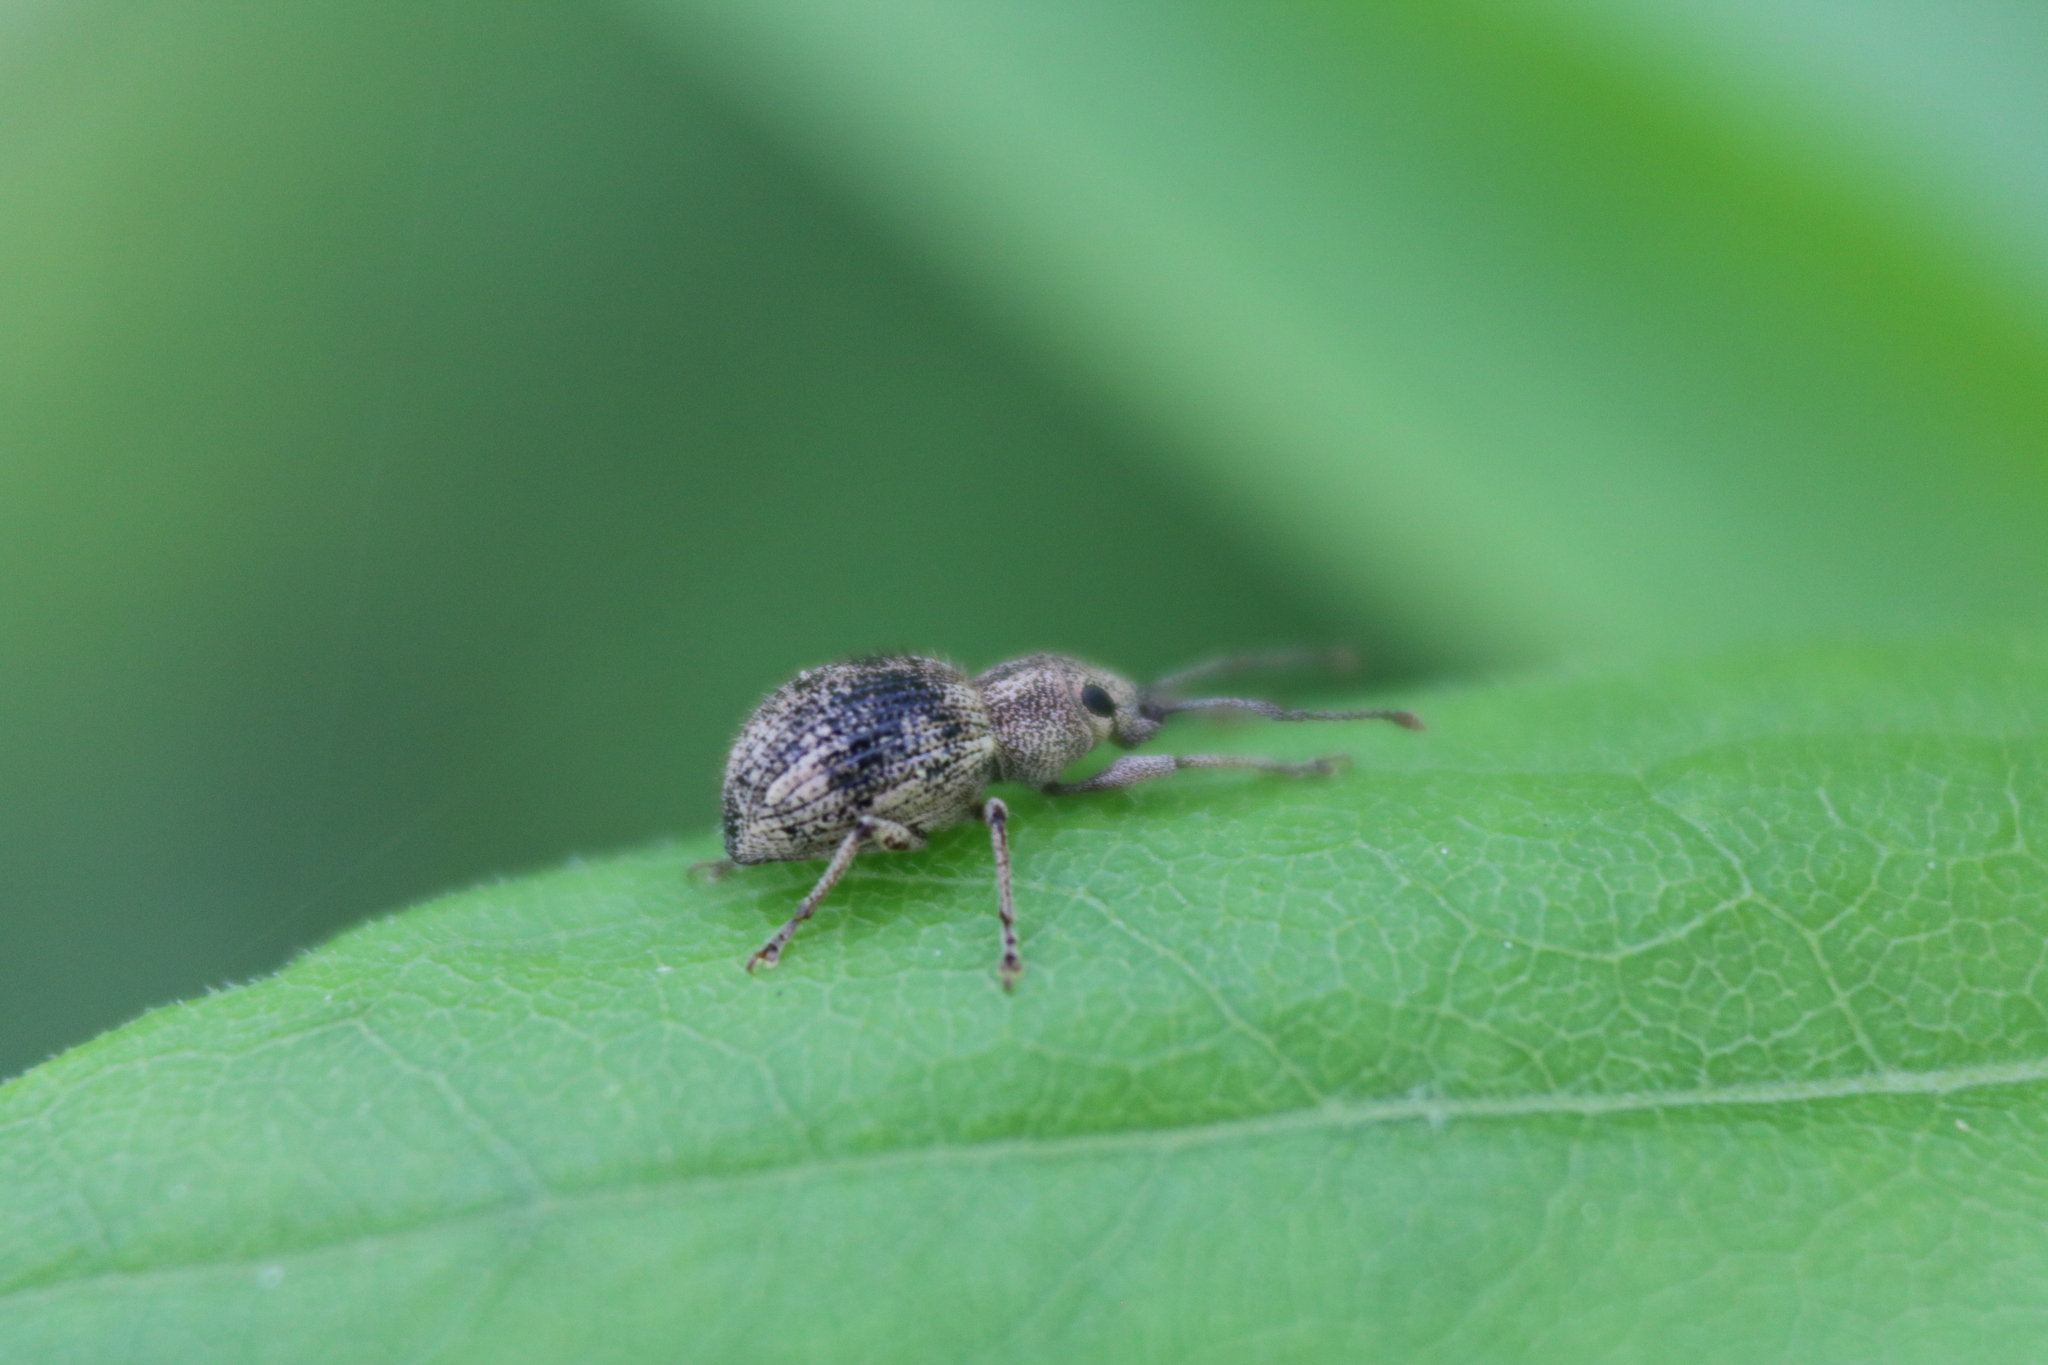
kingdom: Animalia
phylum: Arthropoda
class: Insecta
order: Coleoptera
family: Curculionidae
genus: Calomycterus
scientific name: Calomycterus setarius
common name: Weevil
